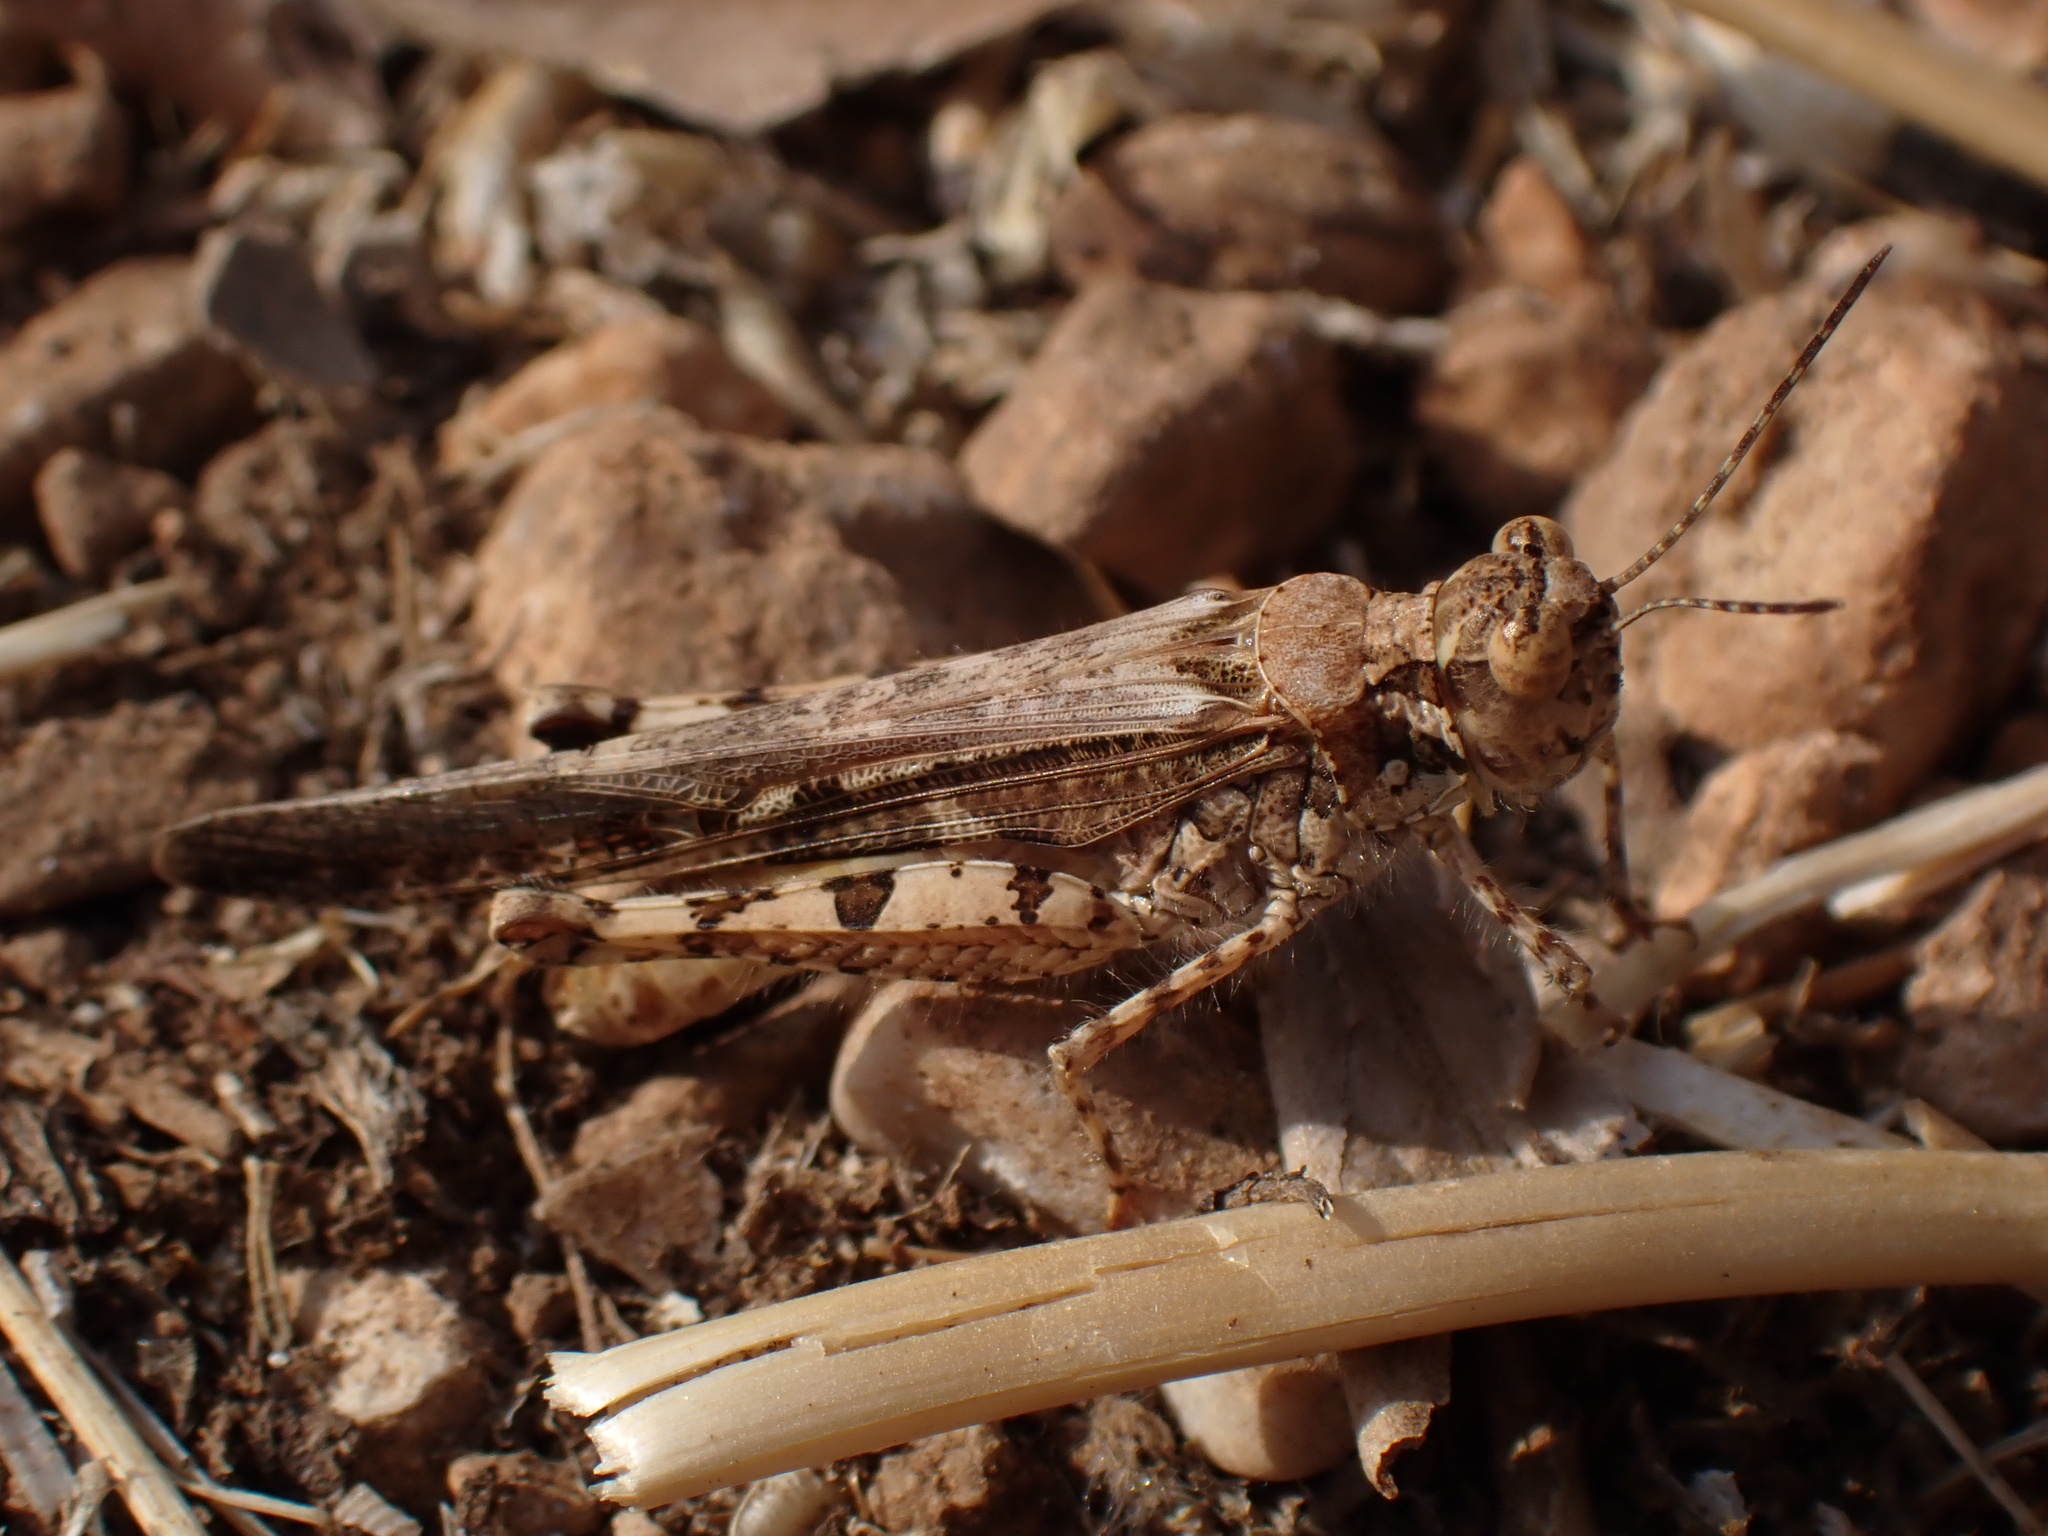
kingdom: Animalia
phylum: Arthropoda
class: Insecta
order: Orthoptera
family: Acrididae
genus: Acrotylus
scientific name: Acrotylus patruelis
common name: Slender burrowing grasshopper
